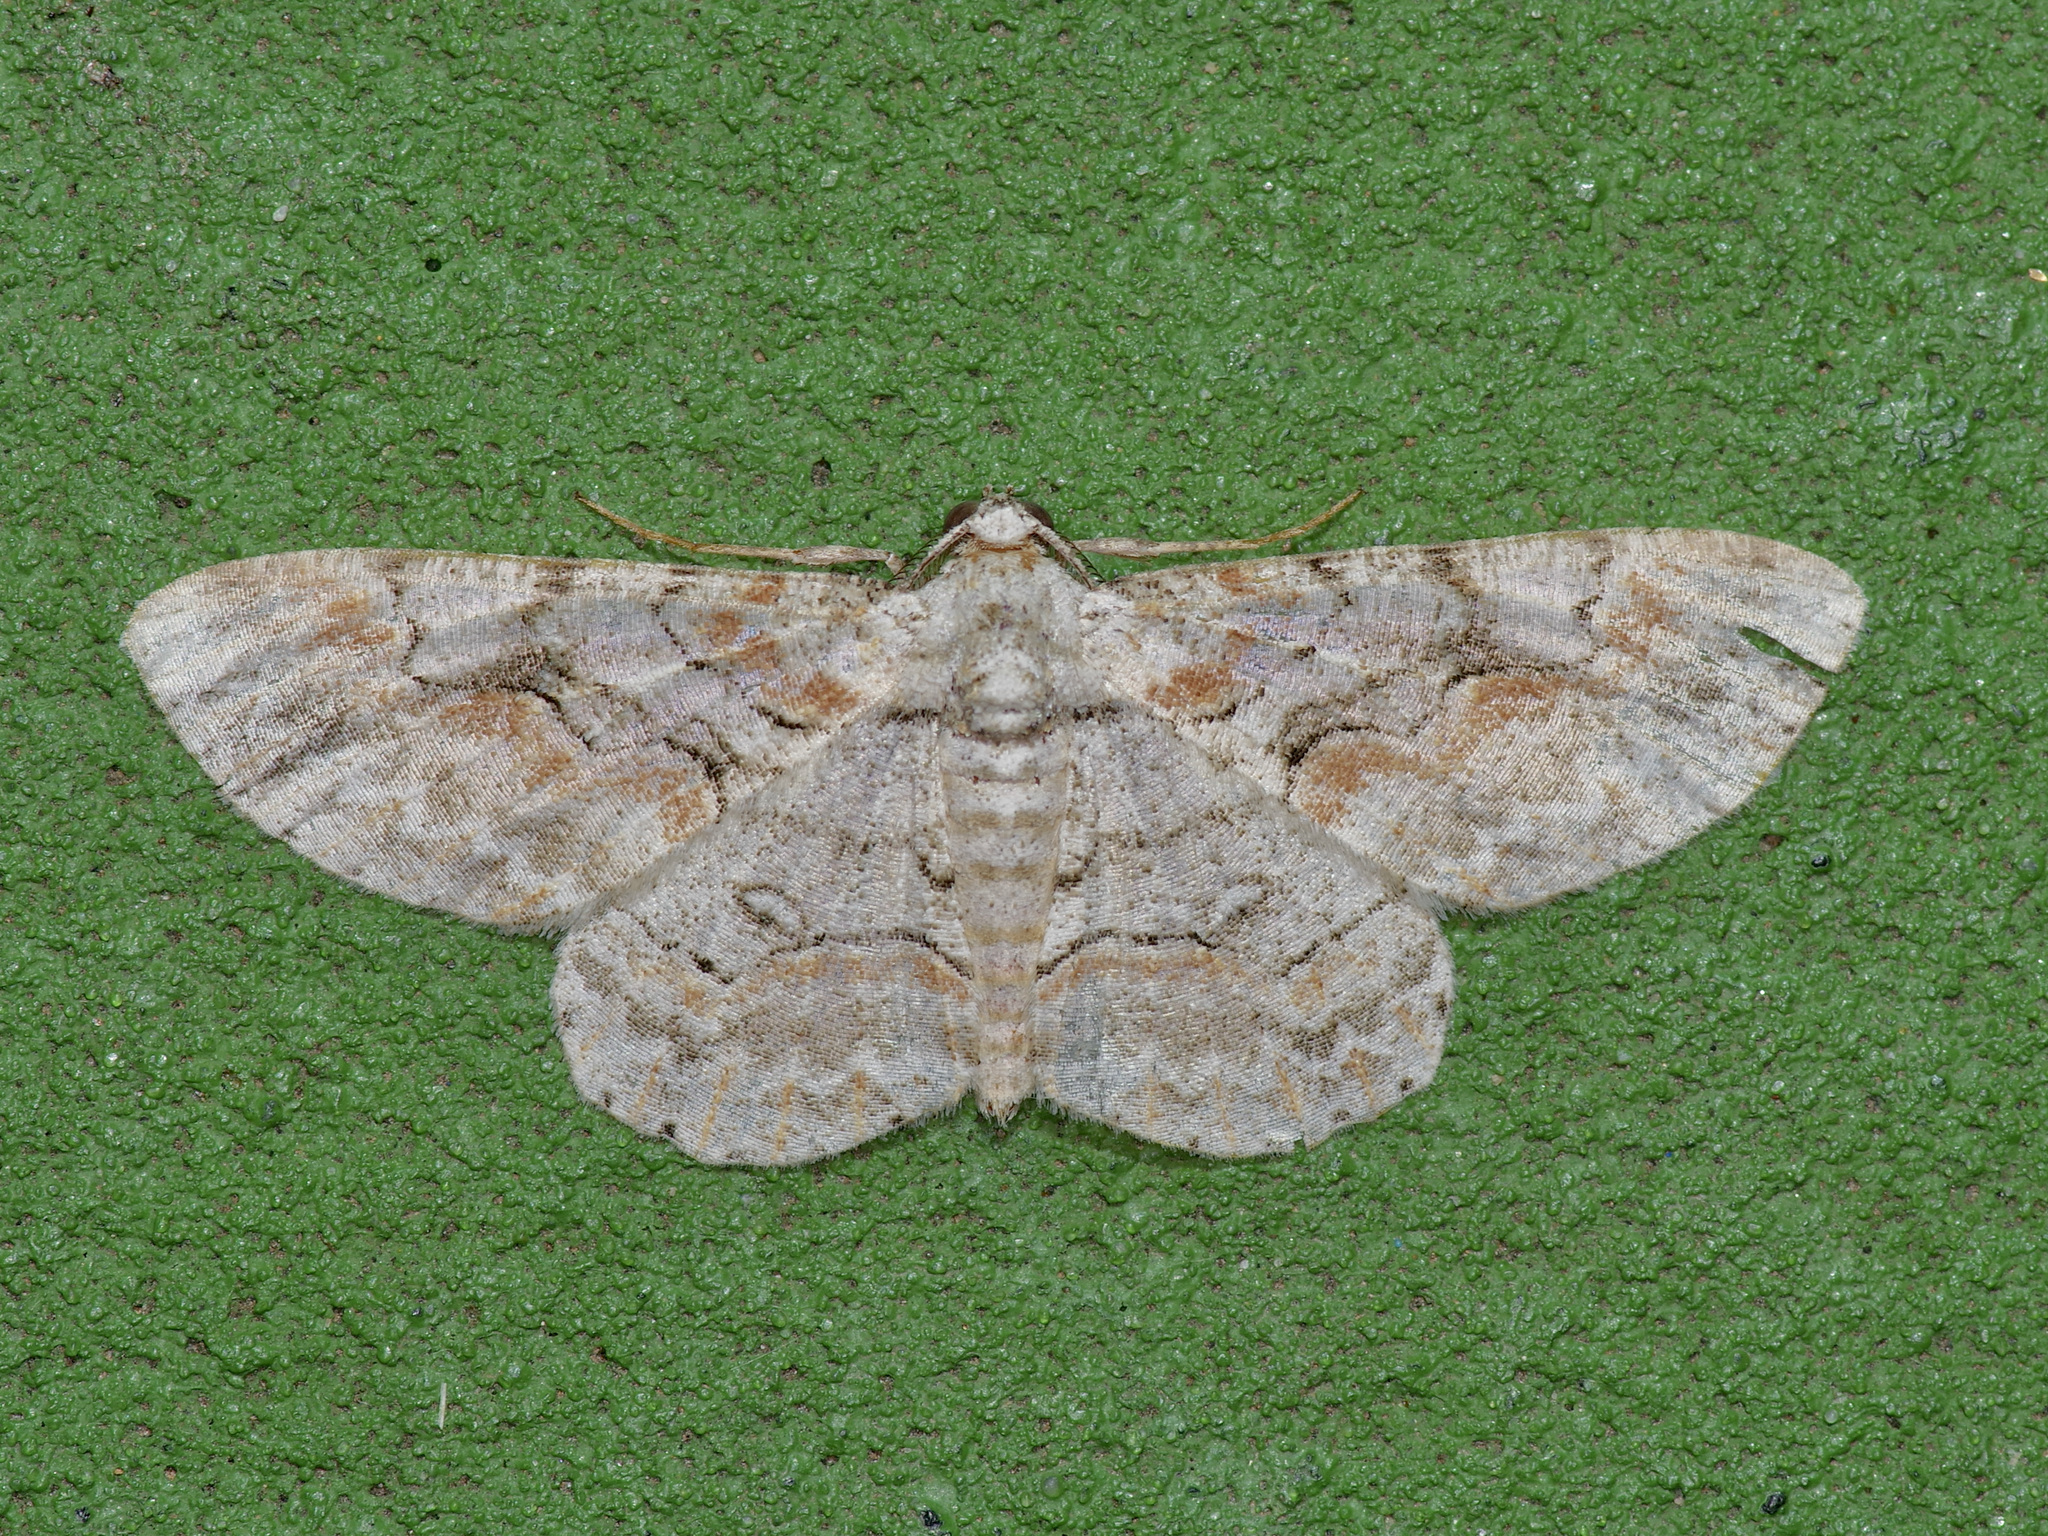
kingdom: Animalia
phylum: Arthropoda
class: Insecta
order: Lepidoptera
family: Geometridae
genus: Iridopsis
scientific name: Iridopsis defectaria
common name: Brown-shaded gray
